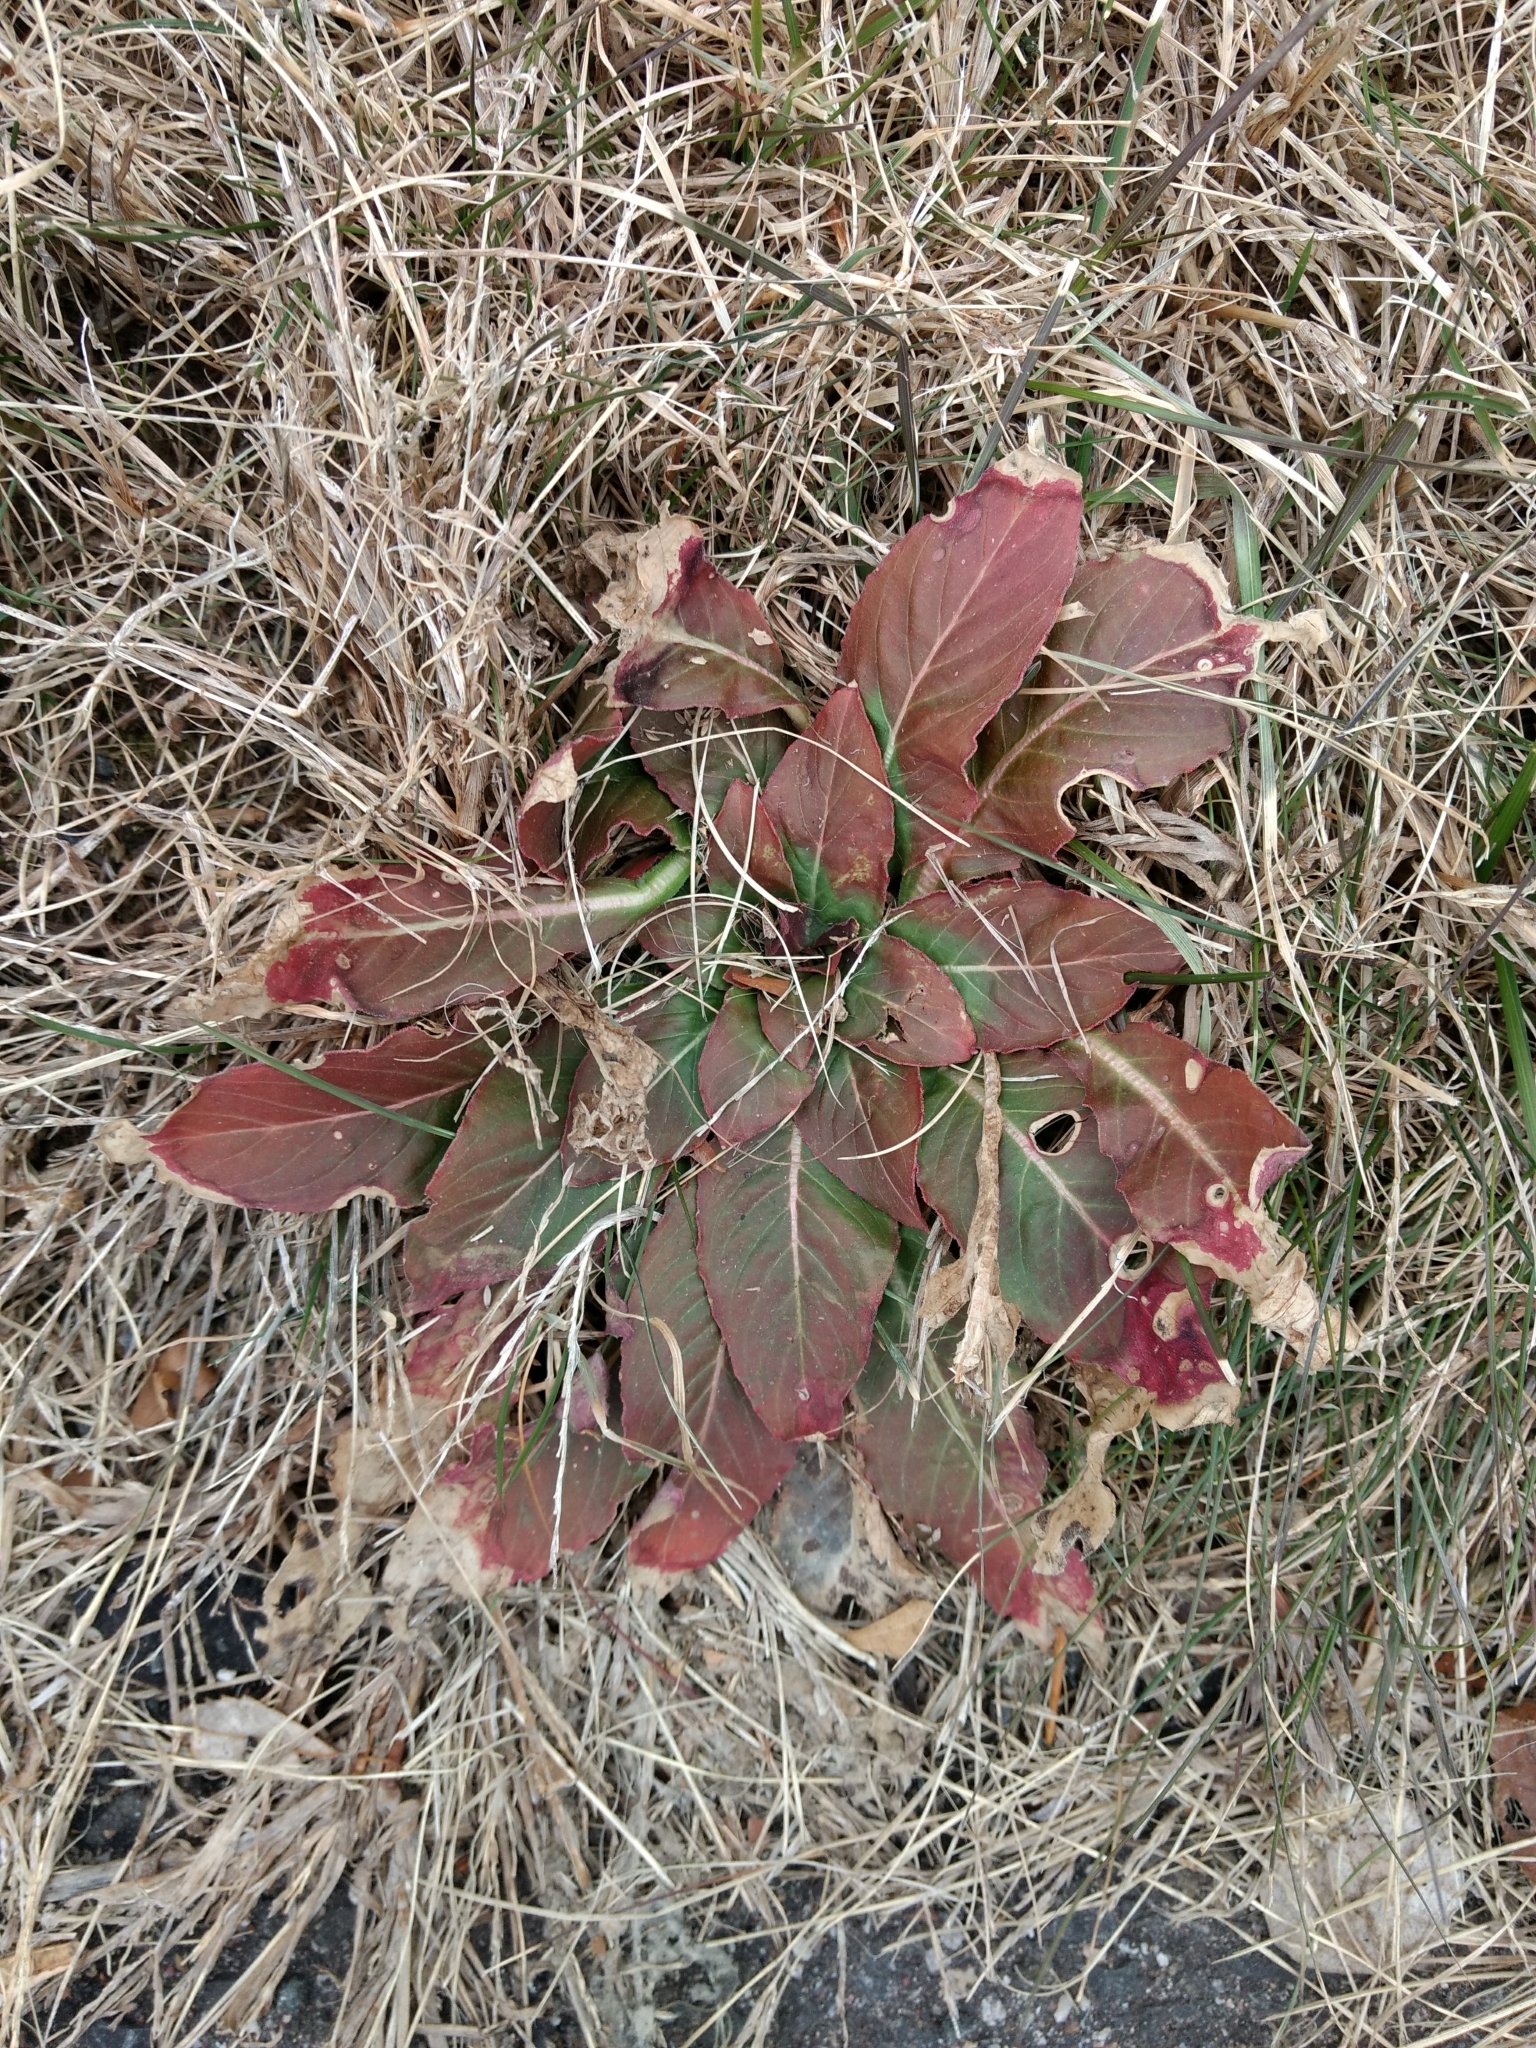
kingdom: Plantae
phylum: Tracheophyta
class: Magnoliopsida
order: Myrtales
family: Onagraceae
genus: Oenothera
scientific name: Oenothera biennis
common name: Common evening-primrose
